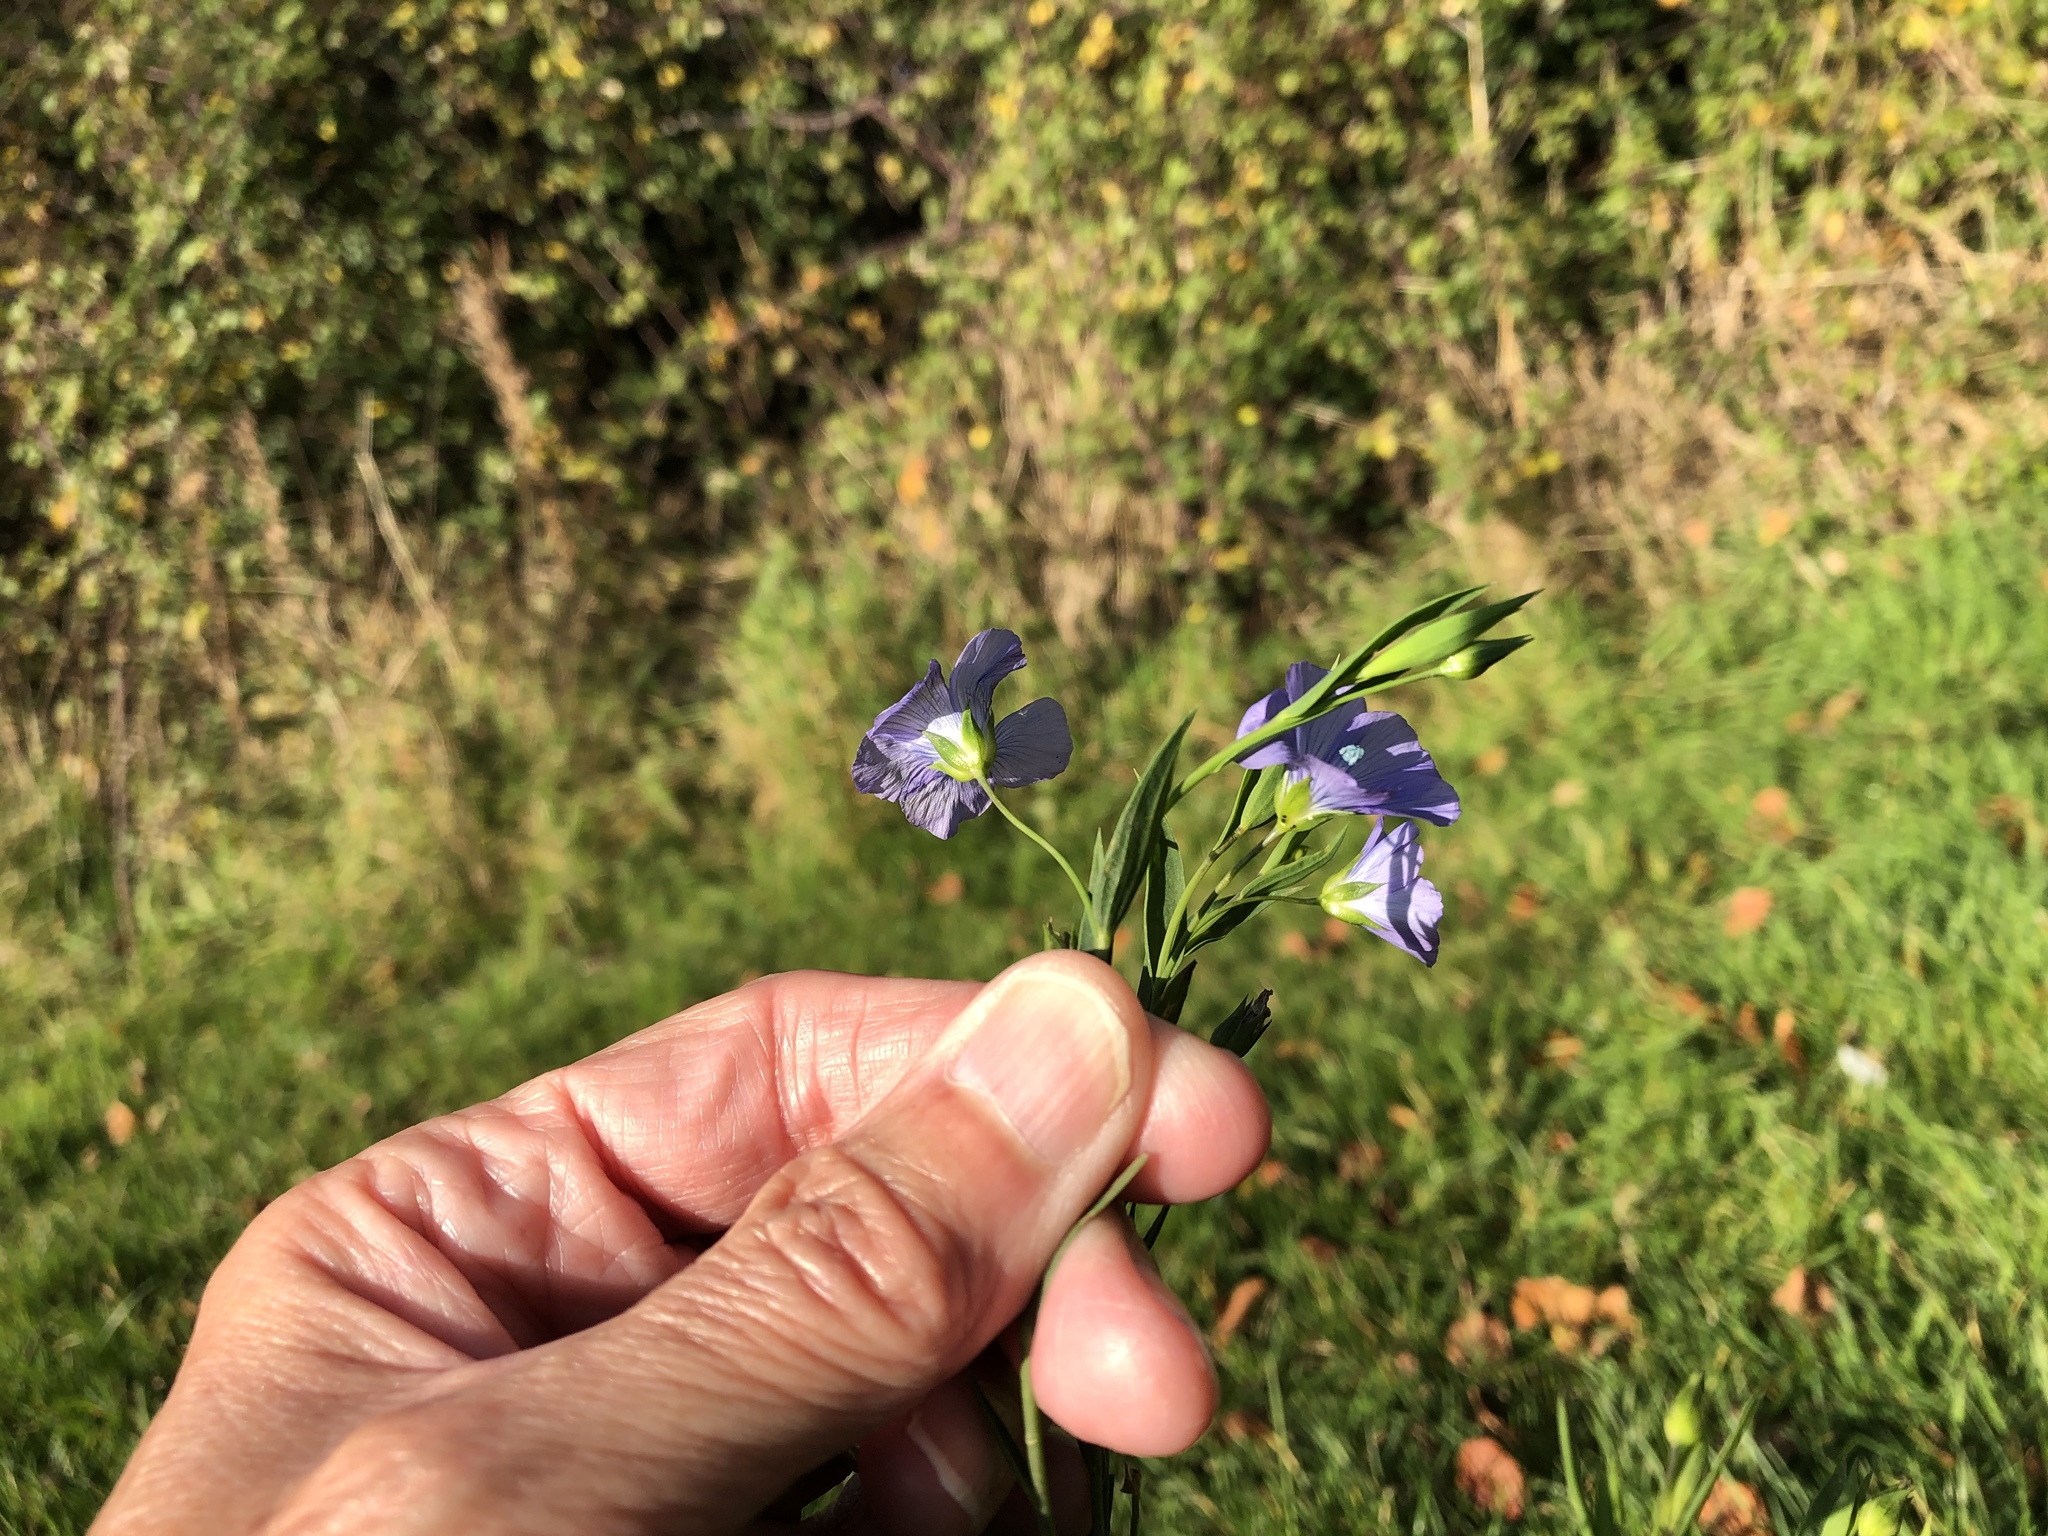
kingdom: Plantae
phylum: Tracheophyta
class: Magnoliopsida
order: Malpighiales
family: Linaceae
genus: Linum
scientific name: Linum usitatissimum
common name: Flax
